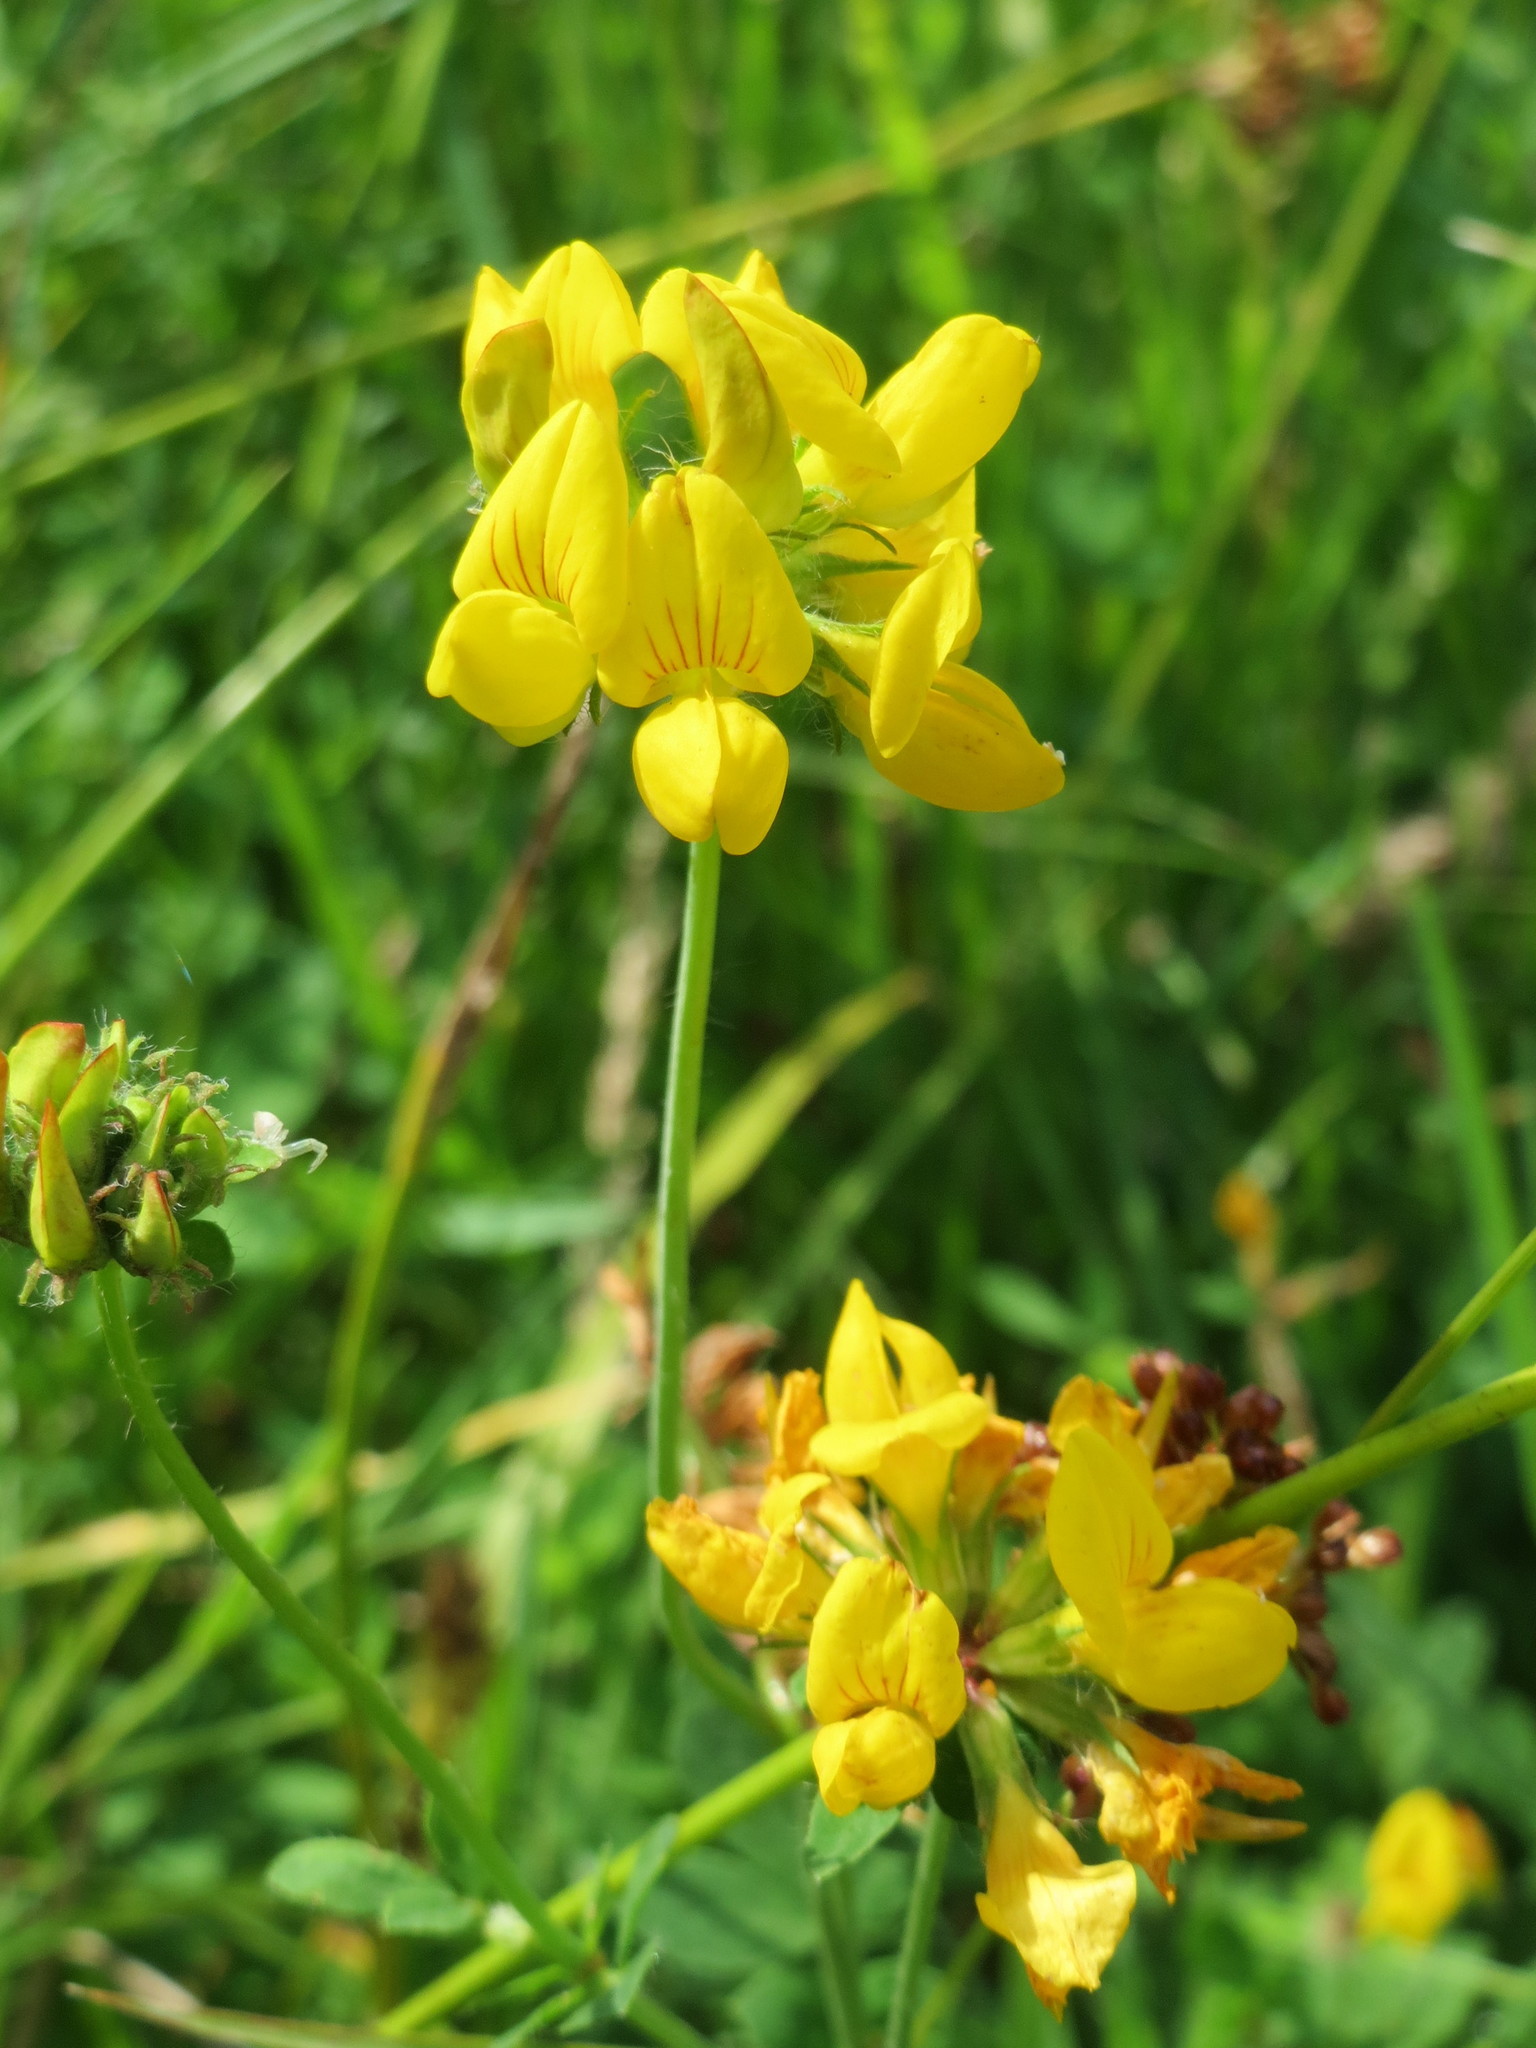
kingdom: Plantae
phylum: Tracheophyta
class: Magnoliopsida
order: Fabales
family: Fabaceae
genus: Lotus
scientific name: Lotus corniculatus
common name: Common bird's-foot-trefoil
